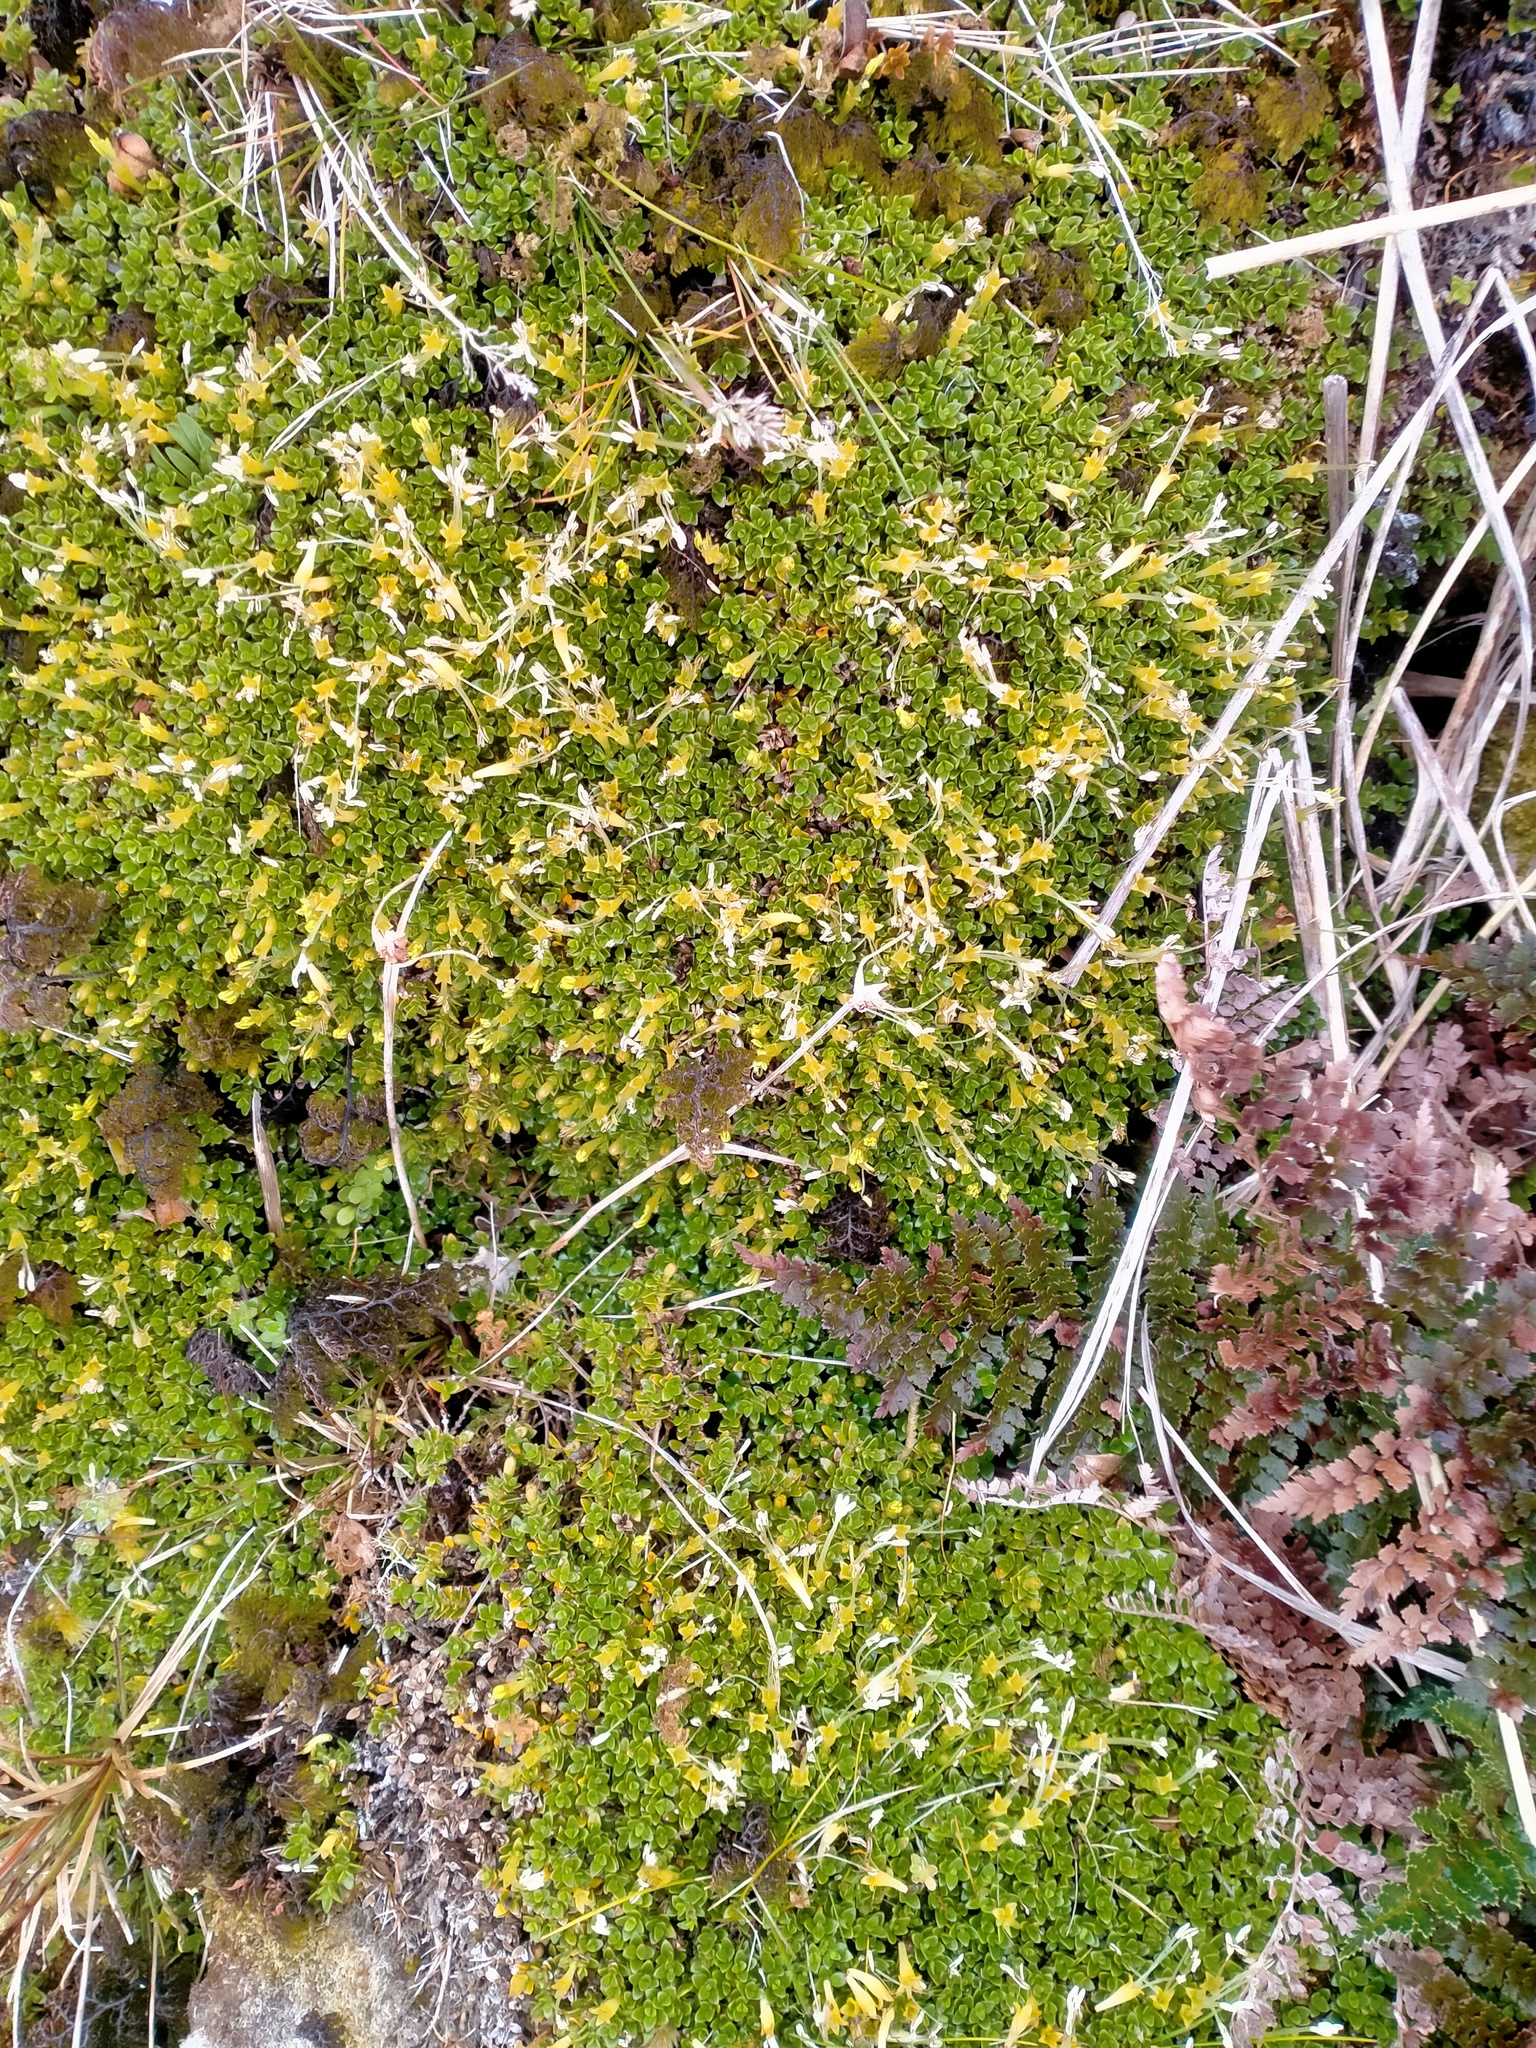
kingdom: Plantae
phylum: Tracheophyta
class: Magnoliopsida
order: Gentianales
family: Rubiaceae
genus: Coprosma
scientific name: Coprosma perpusilla
